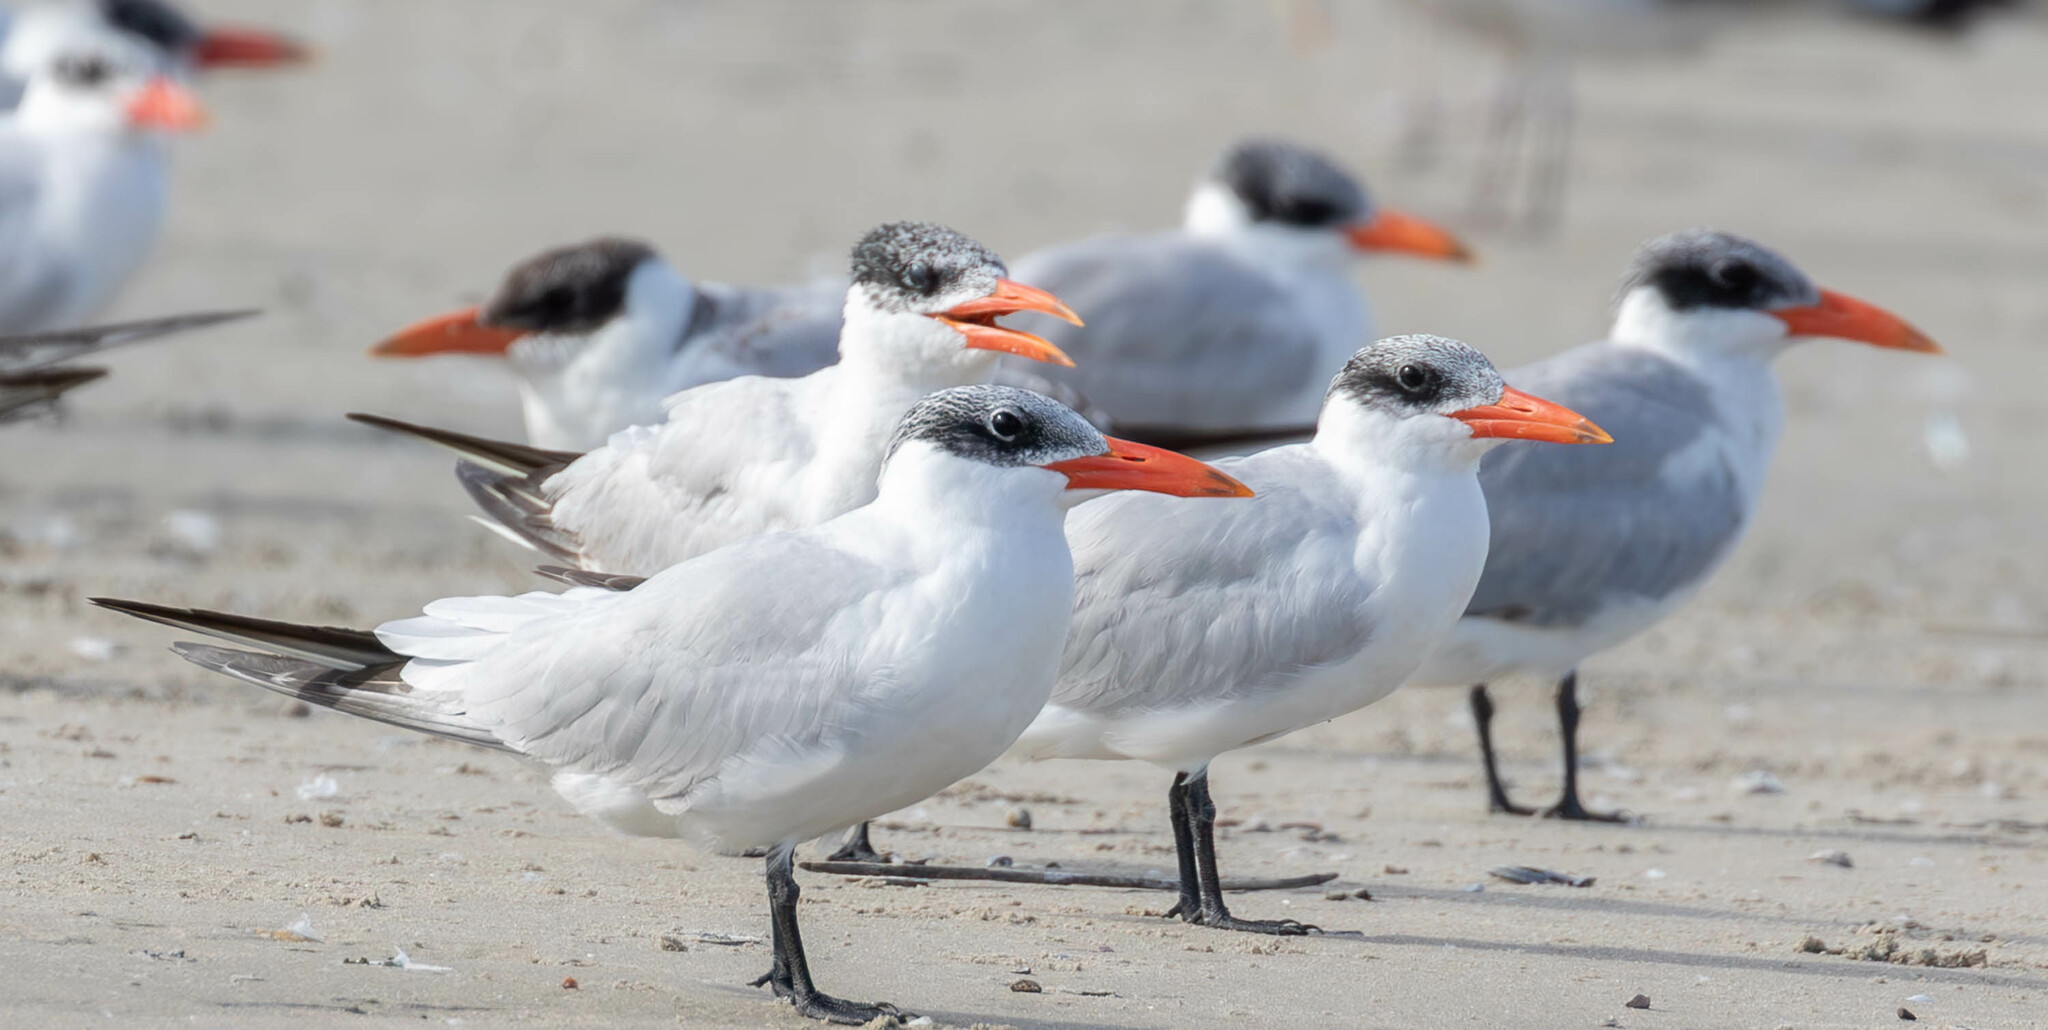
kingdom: Animalia
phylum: Chordata
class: Aves
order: Charadriiformes
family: Laridae
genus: Hydroprogne
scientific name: Hydroprogne caspia
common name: Caspian tern
